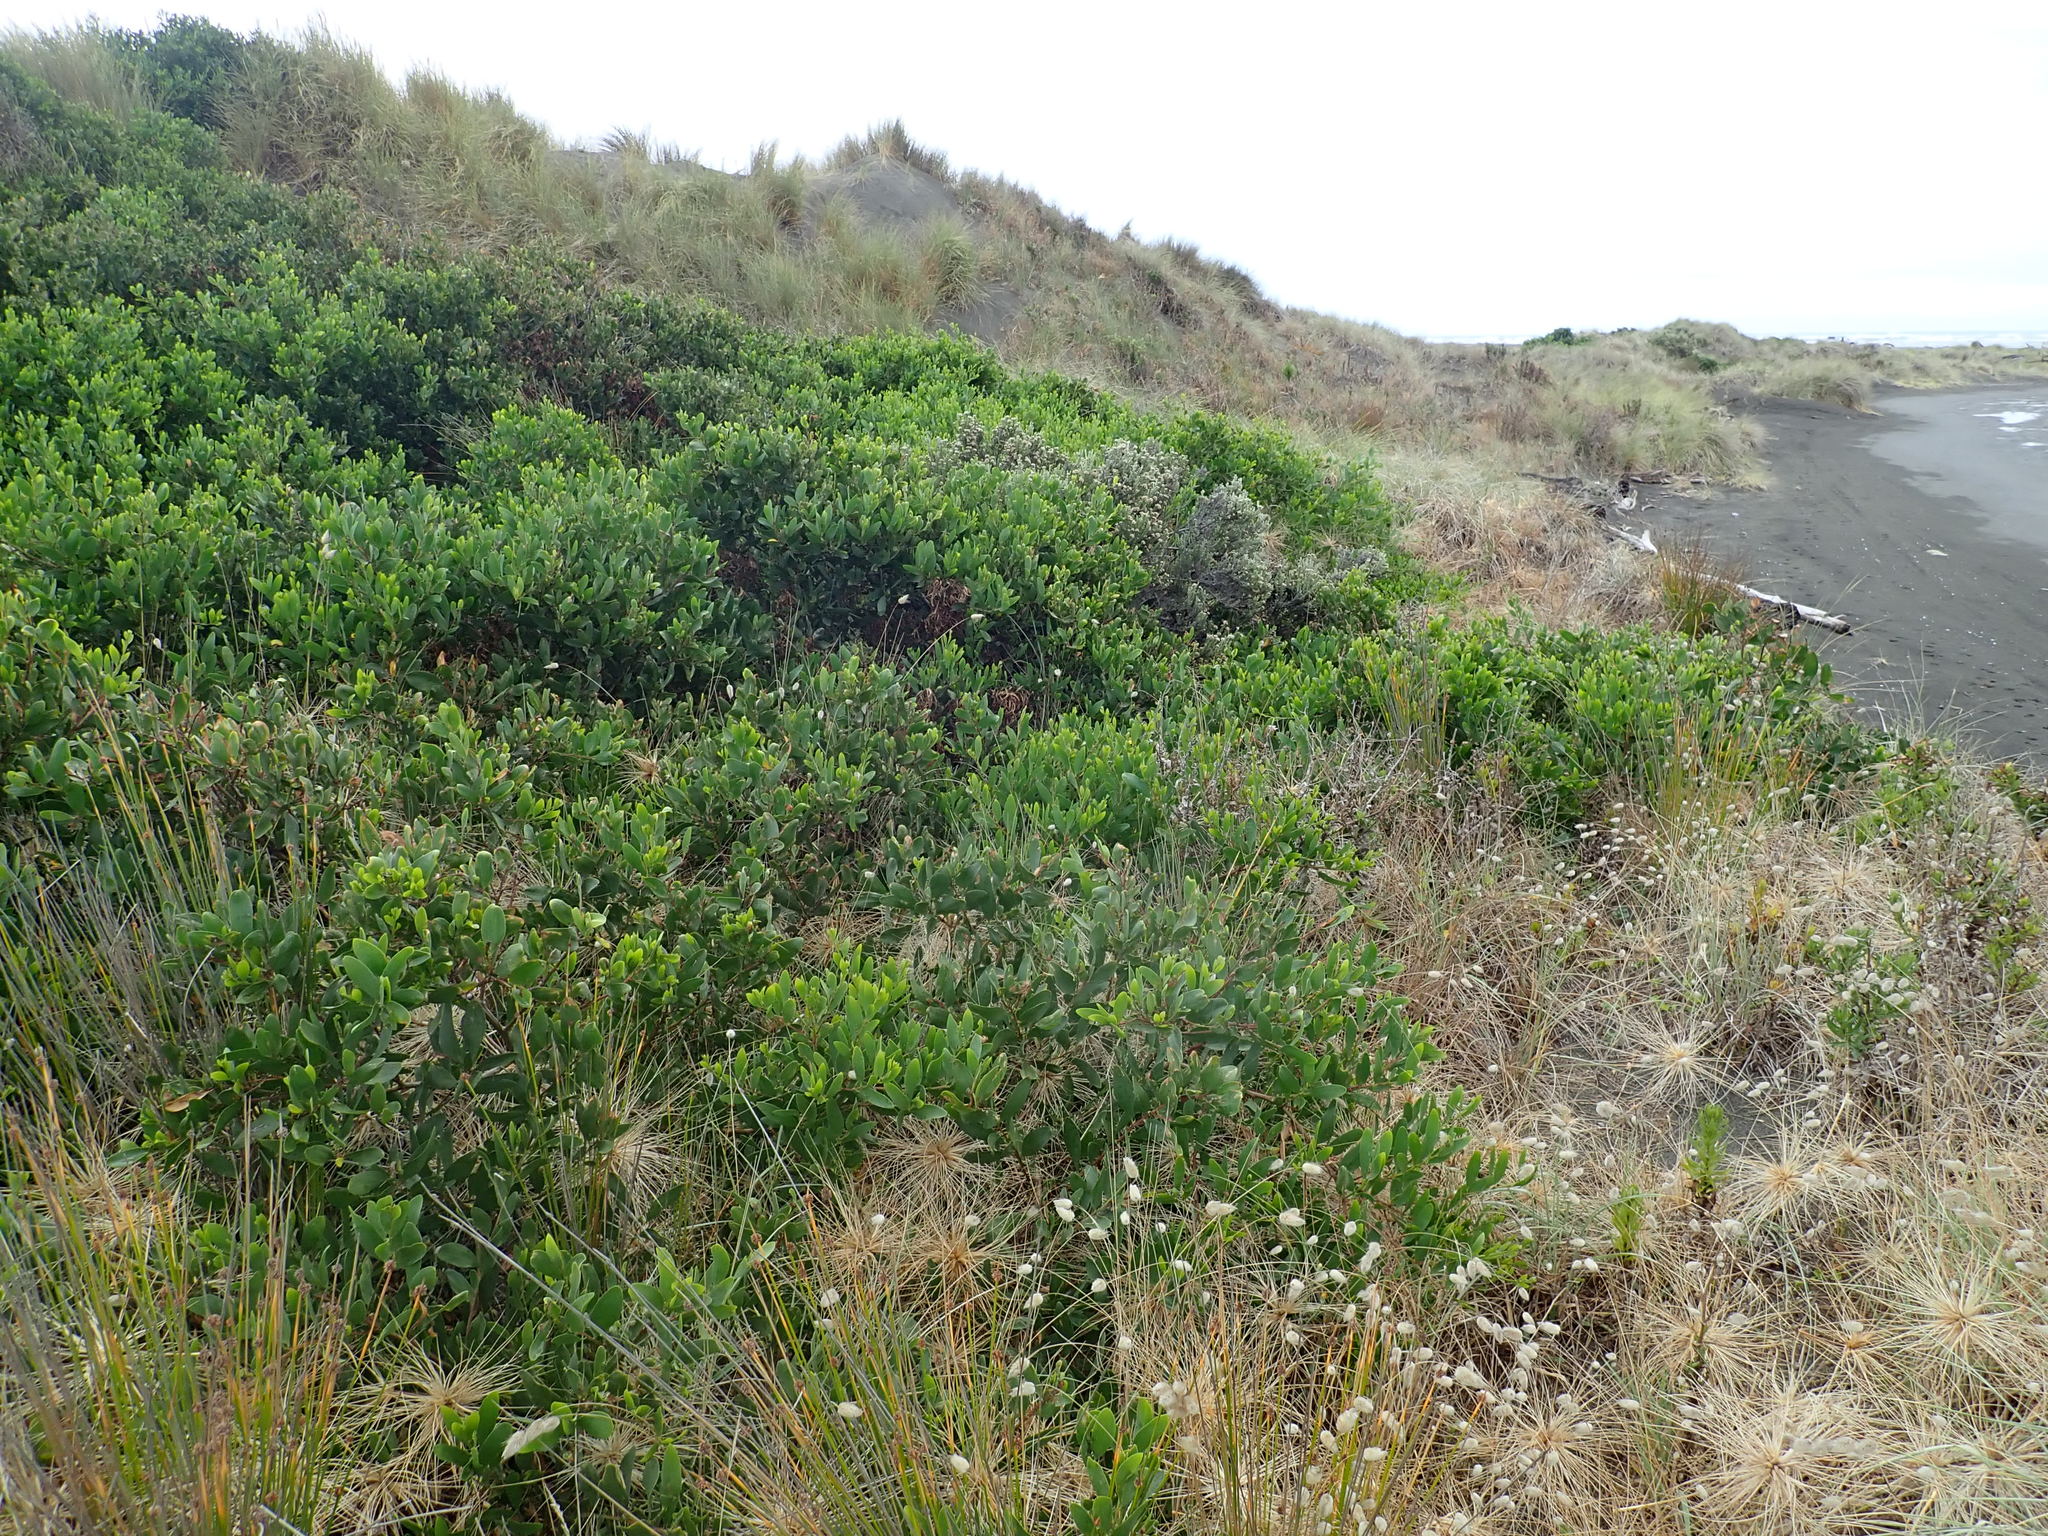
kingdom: Plantae
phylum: Tracheophyta
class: Magnoliopsida
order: Asterales
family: Asteraceae
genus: Ozothamnus
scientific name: Ozothamnus leptophyllus
